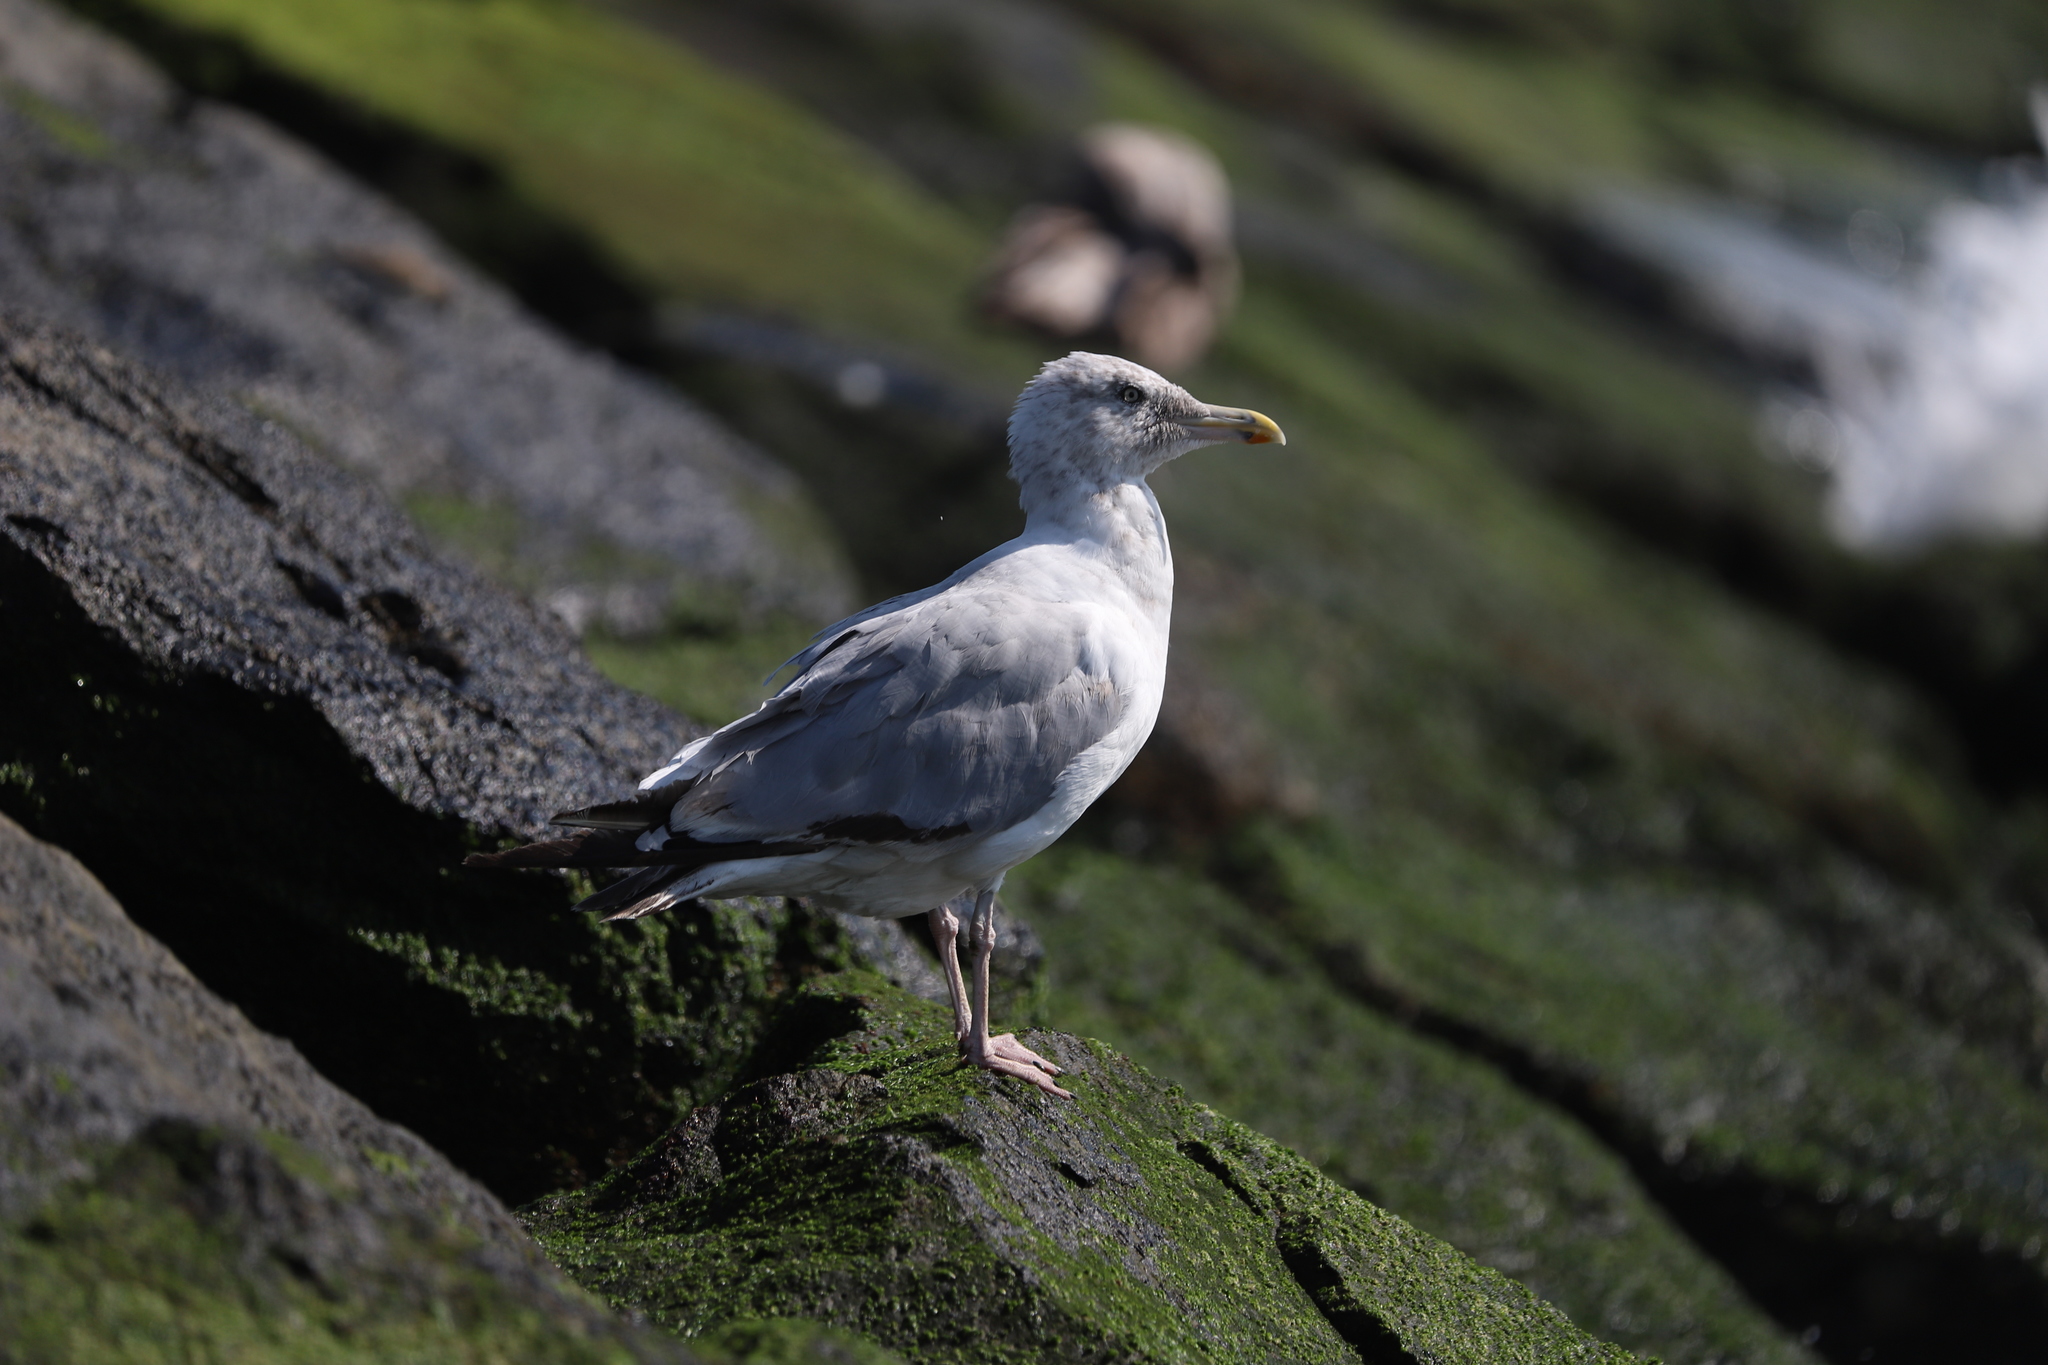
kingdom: Animalia
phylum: Chordata
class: Aves
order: Charadriiformes
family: Laridae
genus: Larus
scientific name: Larus argentatus
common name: Herring gull
